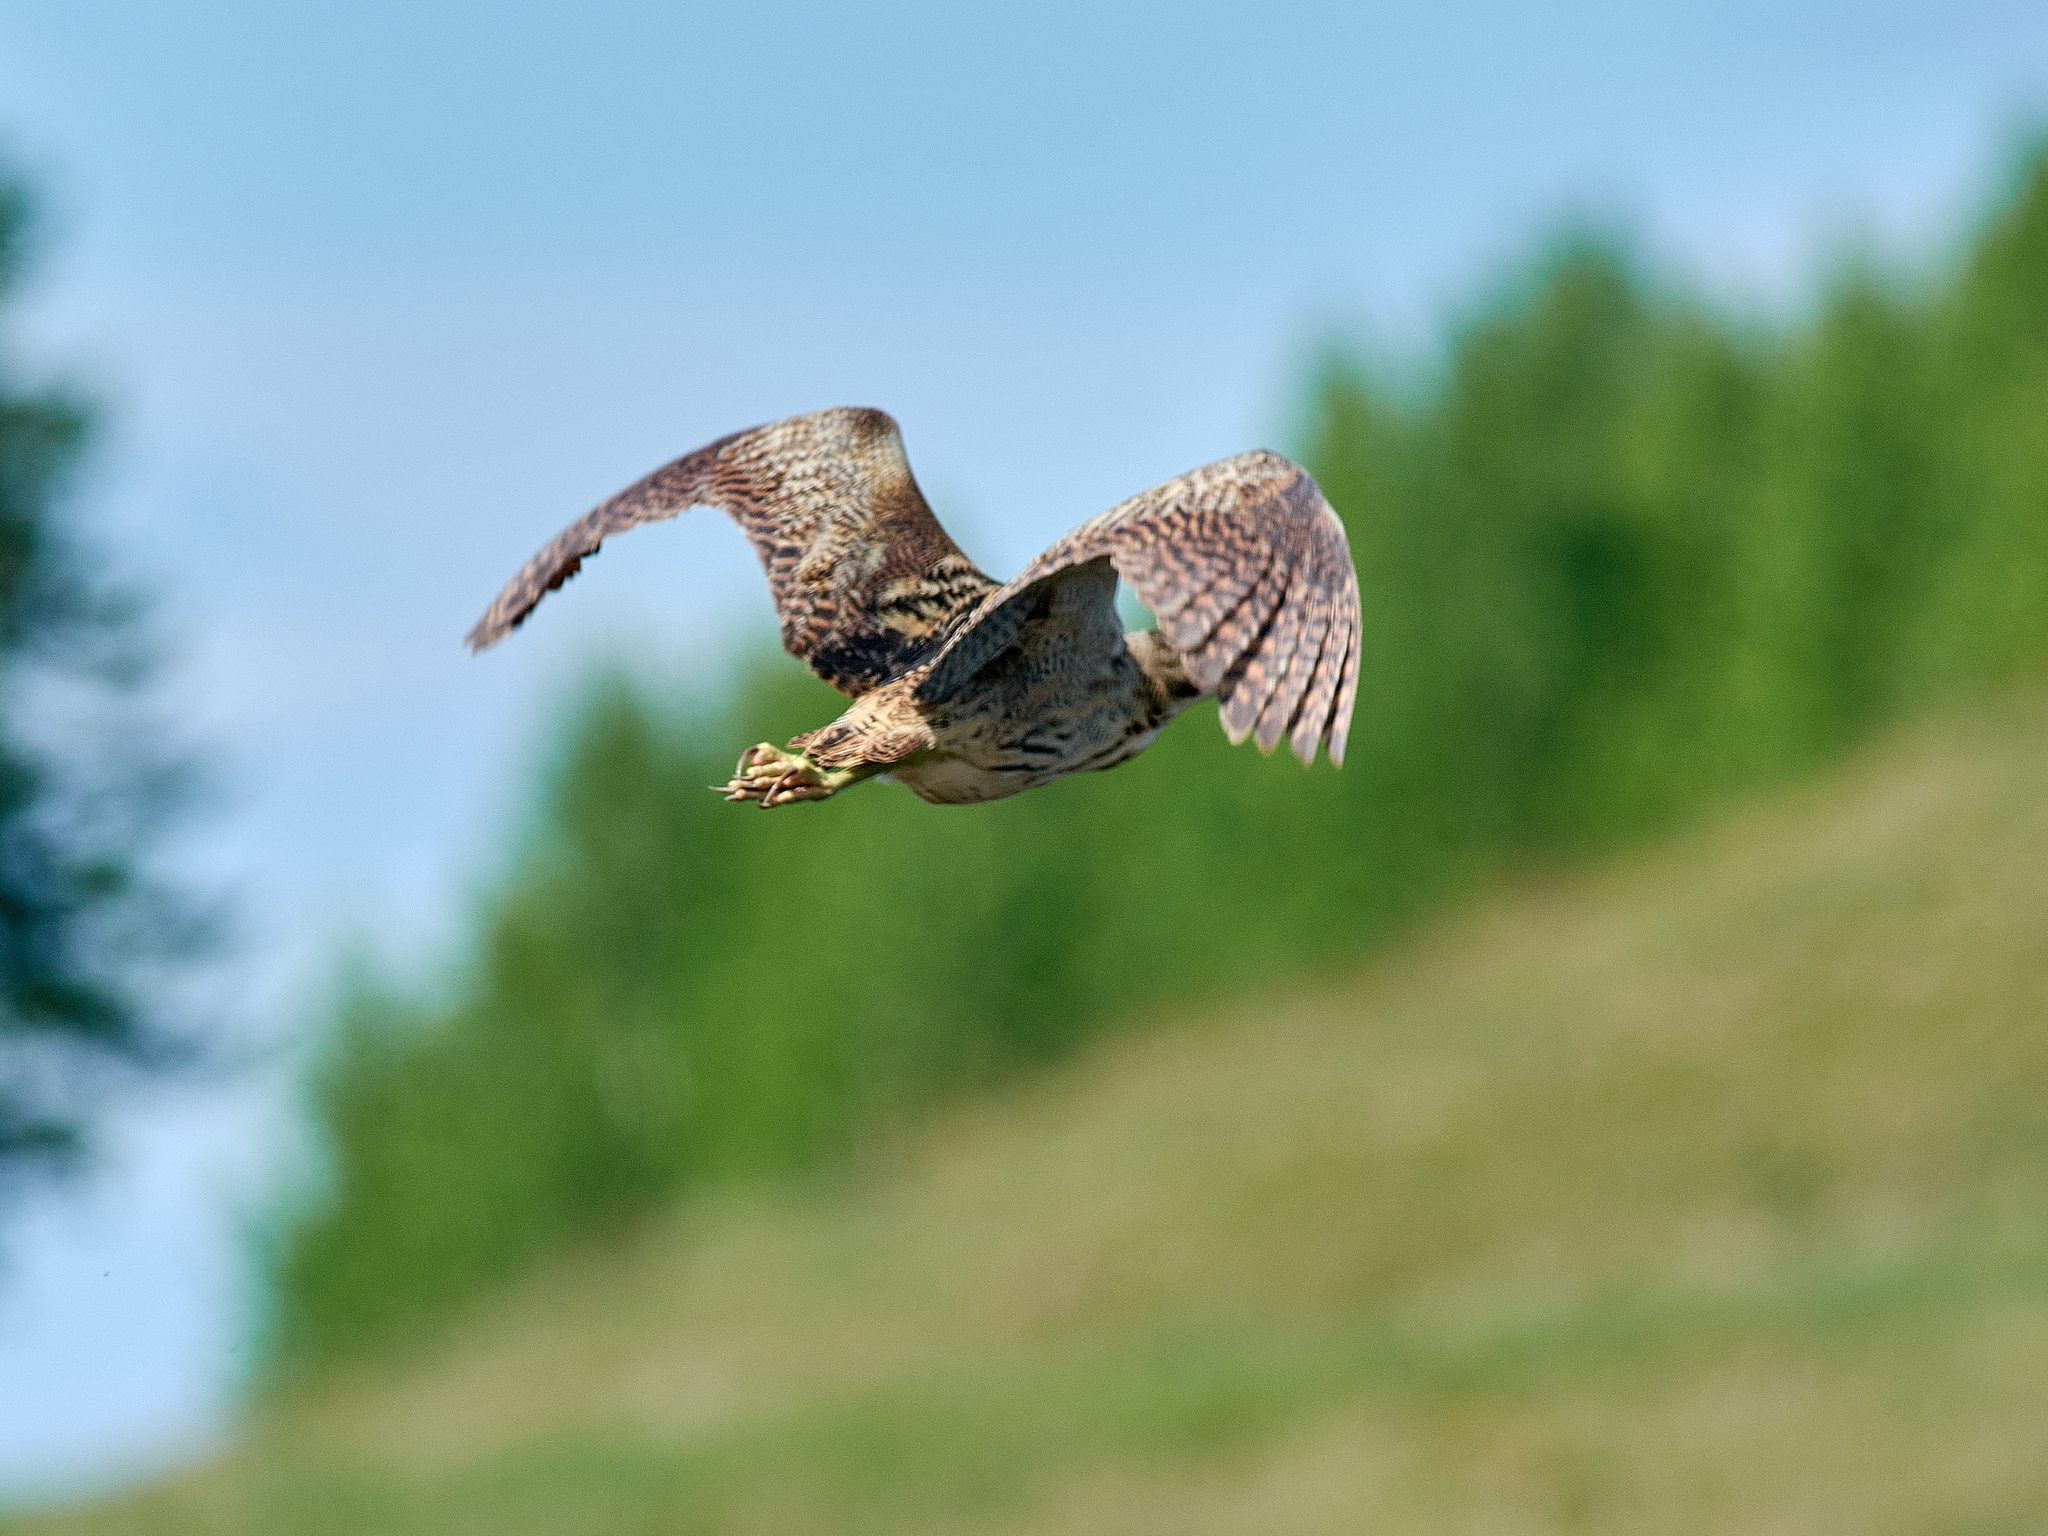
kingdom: Animalia
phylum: Chordata
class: Aves
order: Pelecaniformes
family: Ardeidae
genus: Botaurus
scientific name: Botaurus stellaris
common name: Eurasian bittern
